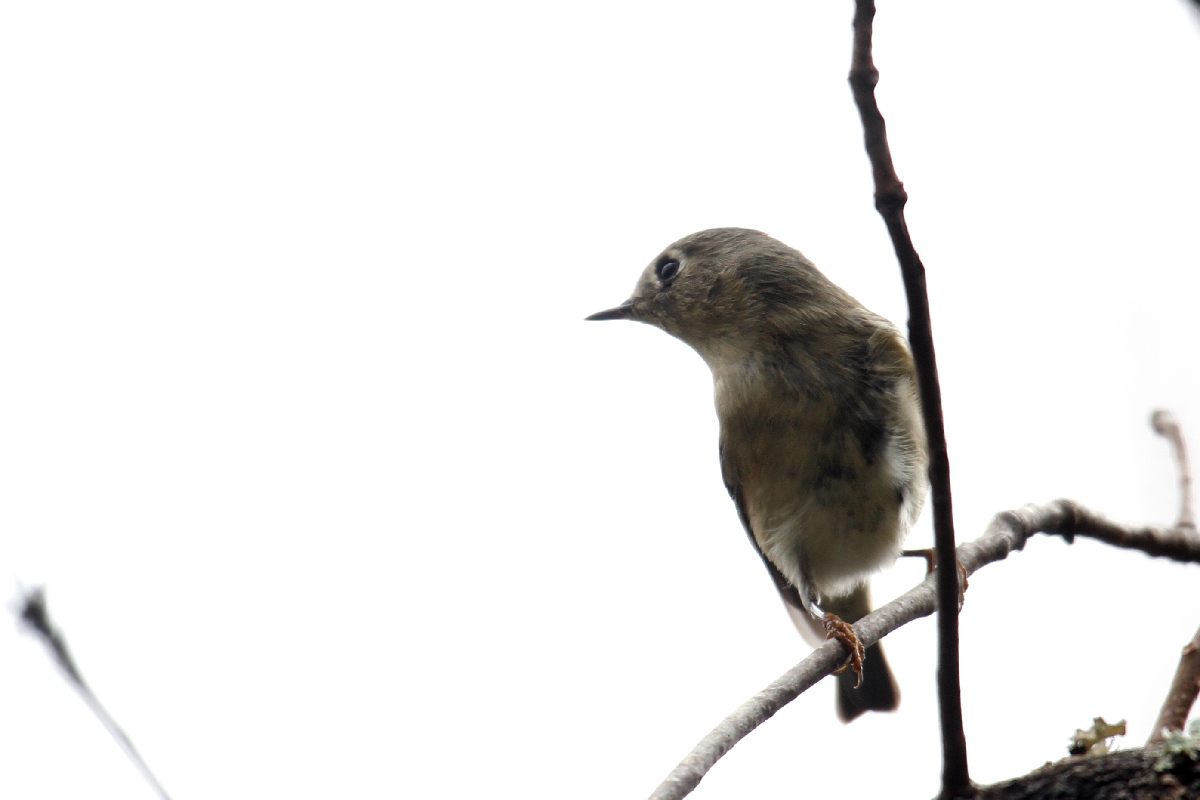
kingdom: Animalia
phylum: Chordata
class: Aves
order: Passeriformes
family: Regulidae
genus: Regulus
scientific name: Regulus calendula
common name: Ruby-crowned kinglet
